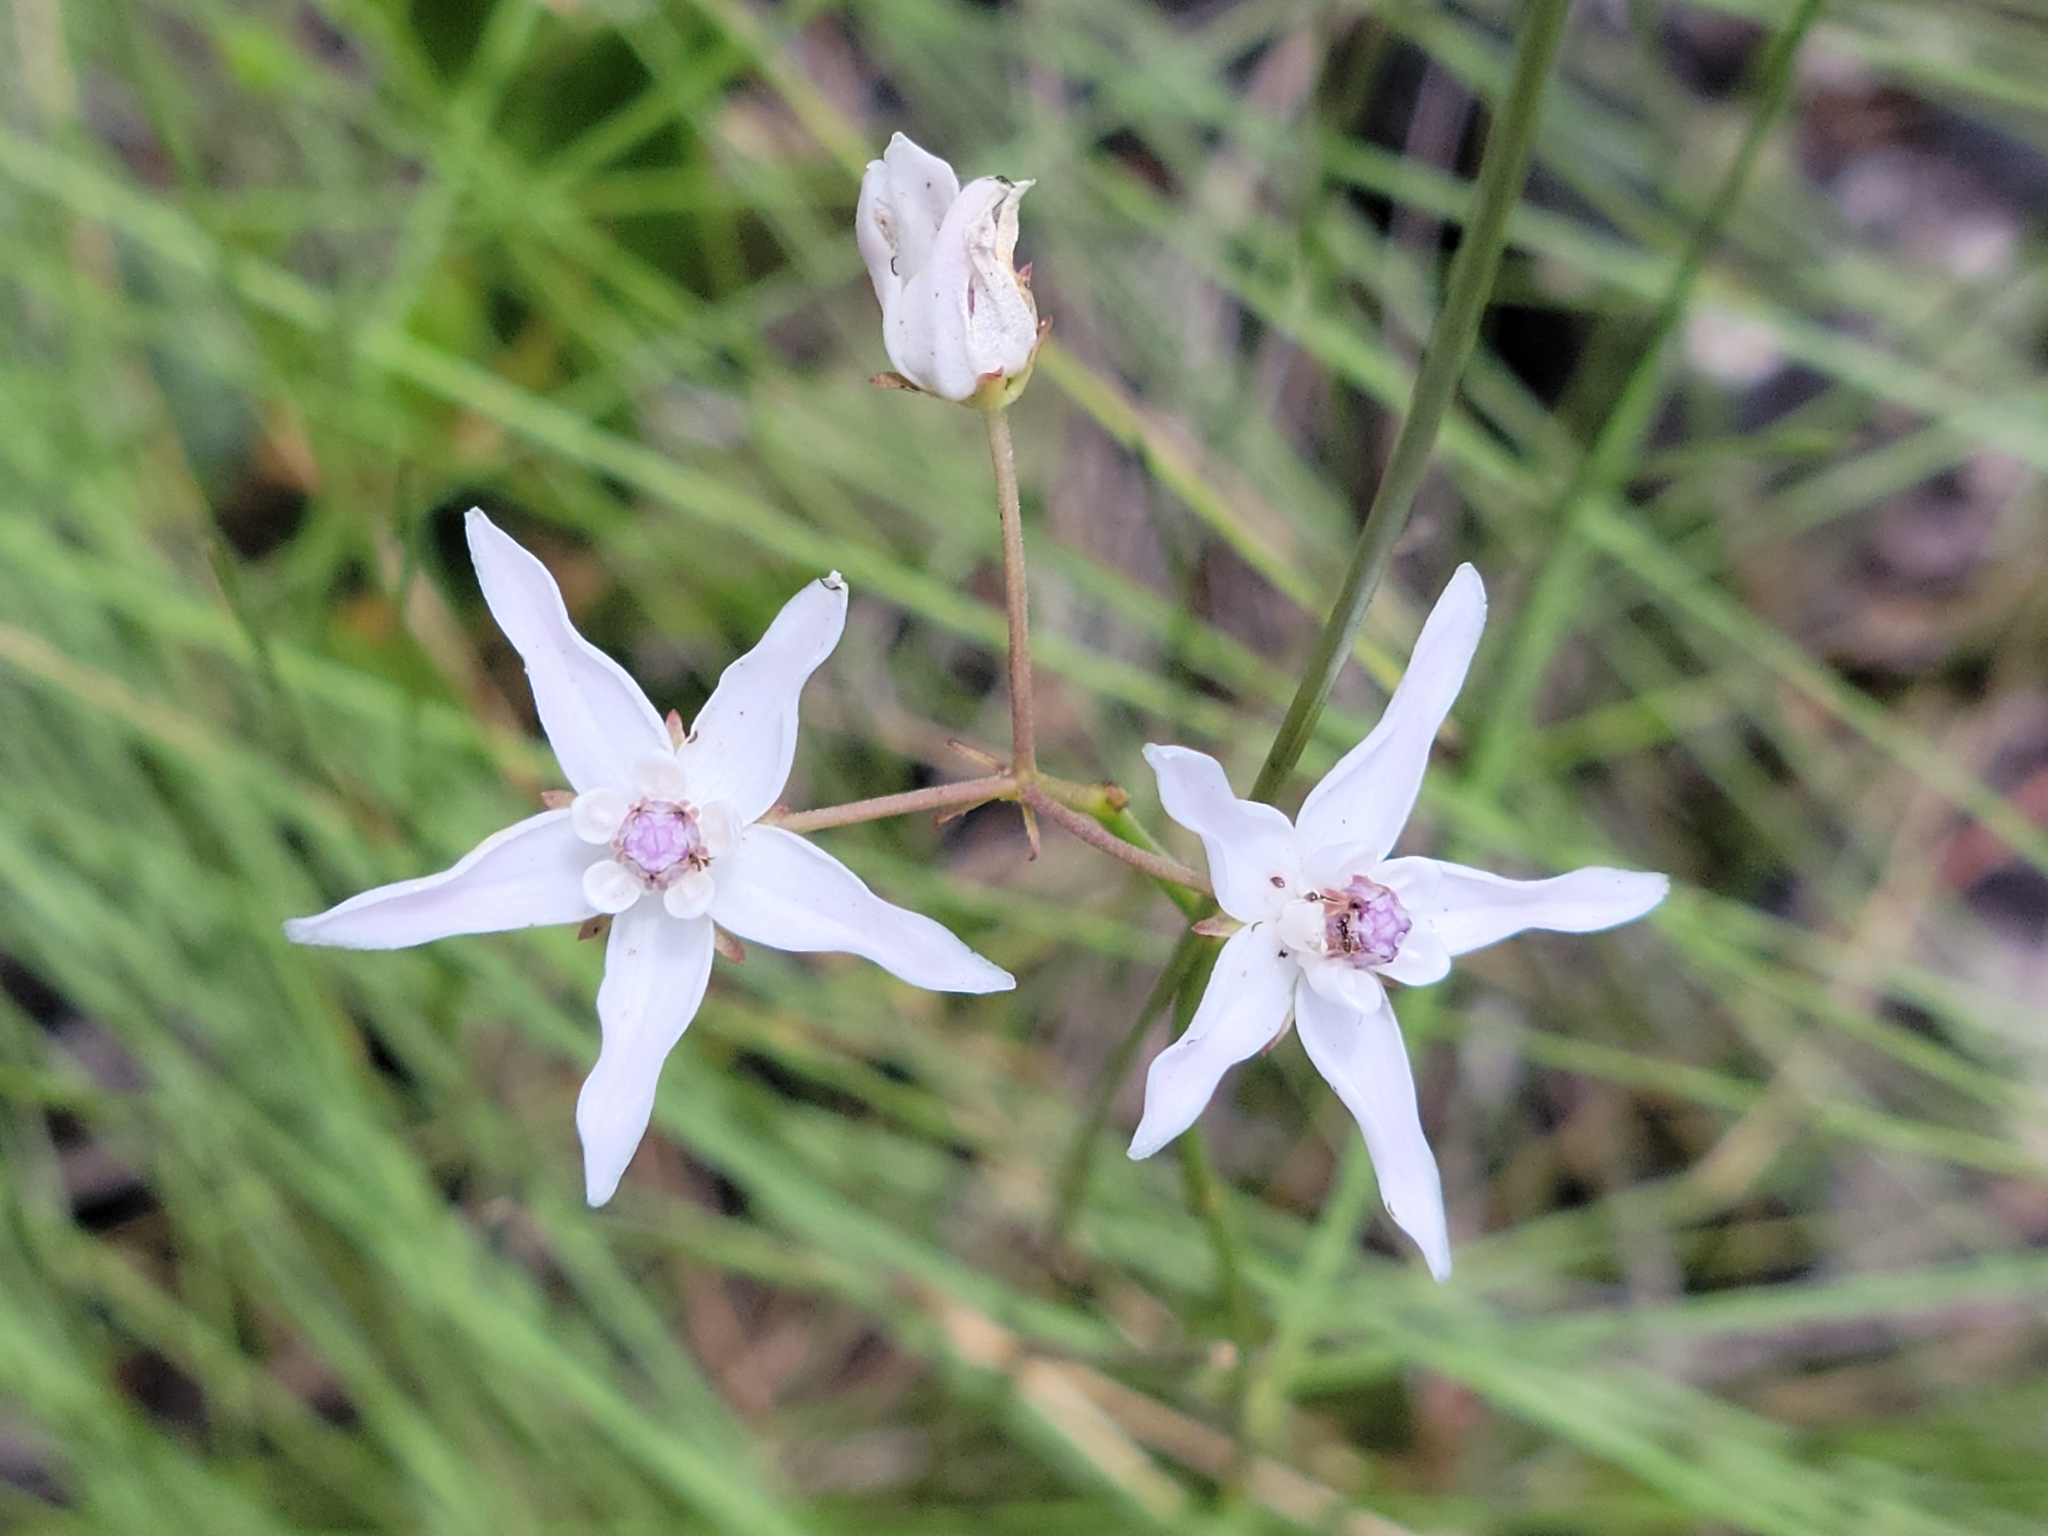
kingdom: Plantae
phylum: Tracheophyta
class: Magnoliopsida
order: Gentianales
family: Apocynaceae
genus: Asclepias
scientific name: Asclepias feayi
